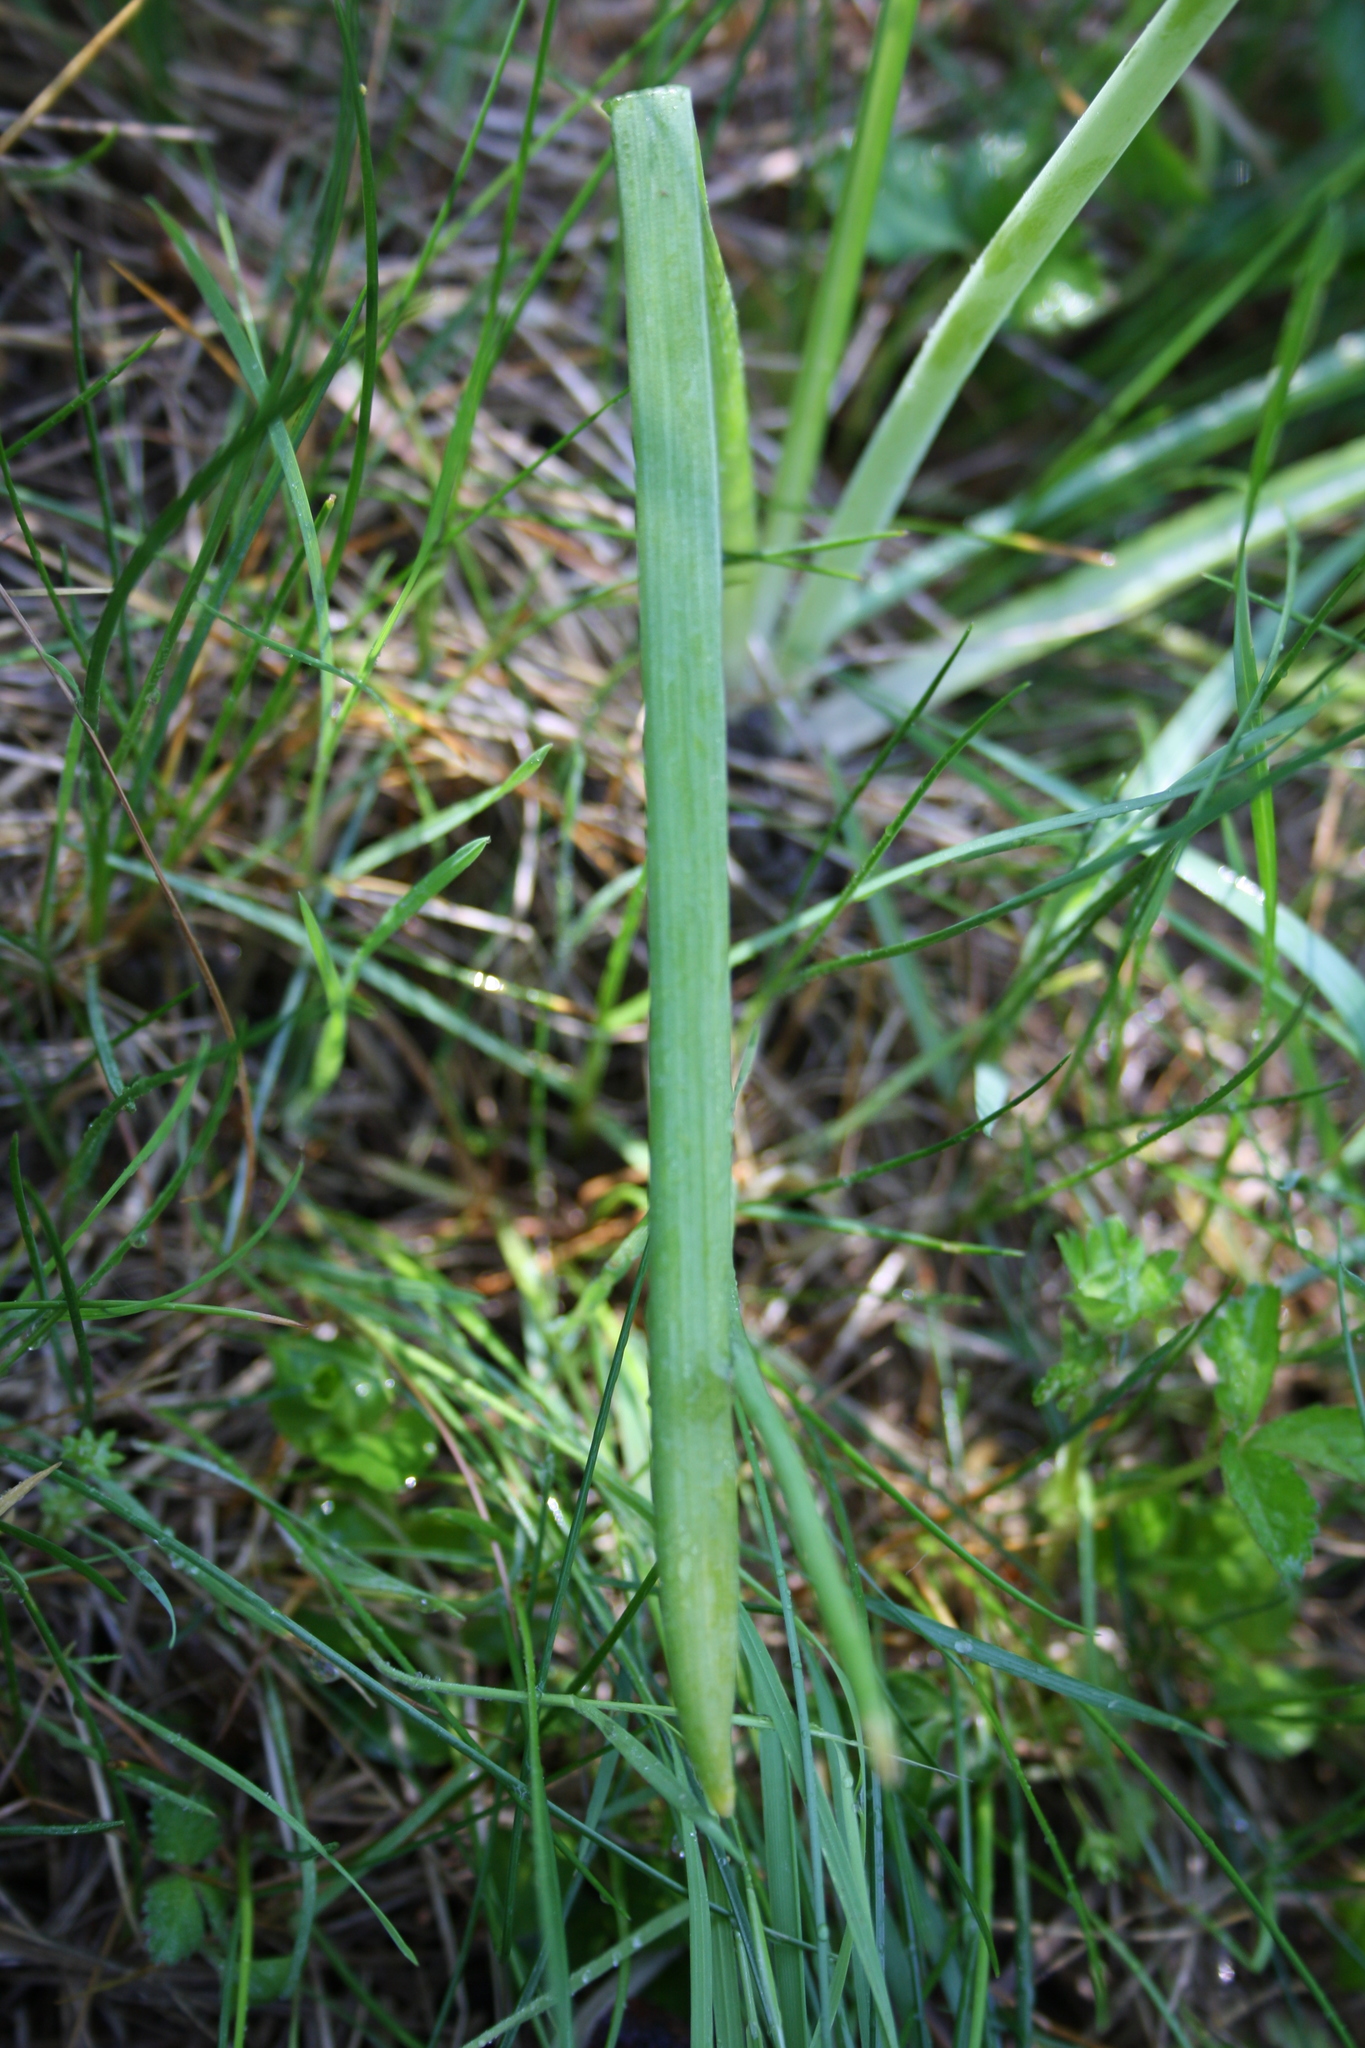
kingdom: Plantae
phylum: Tracheophyta
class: Liliopsida
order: Asparagales
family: Asparagaceae
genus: Ornithogalum
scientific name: Ornithogalum nutans
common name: Drooping star-of-bethlehem
